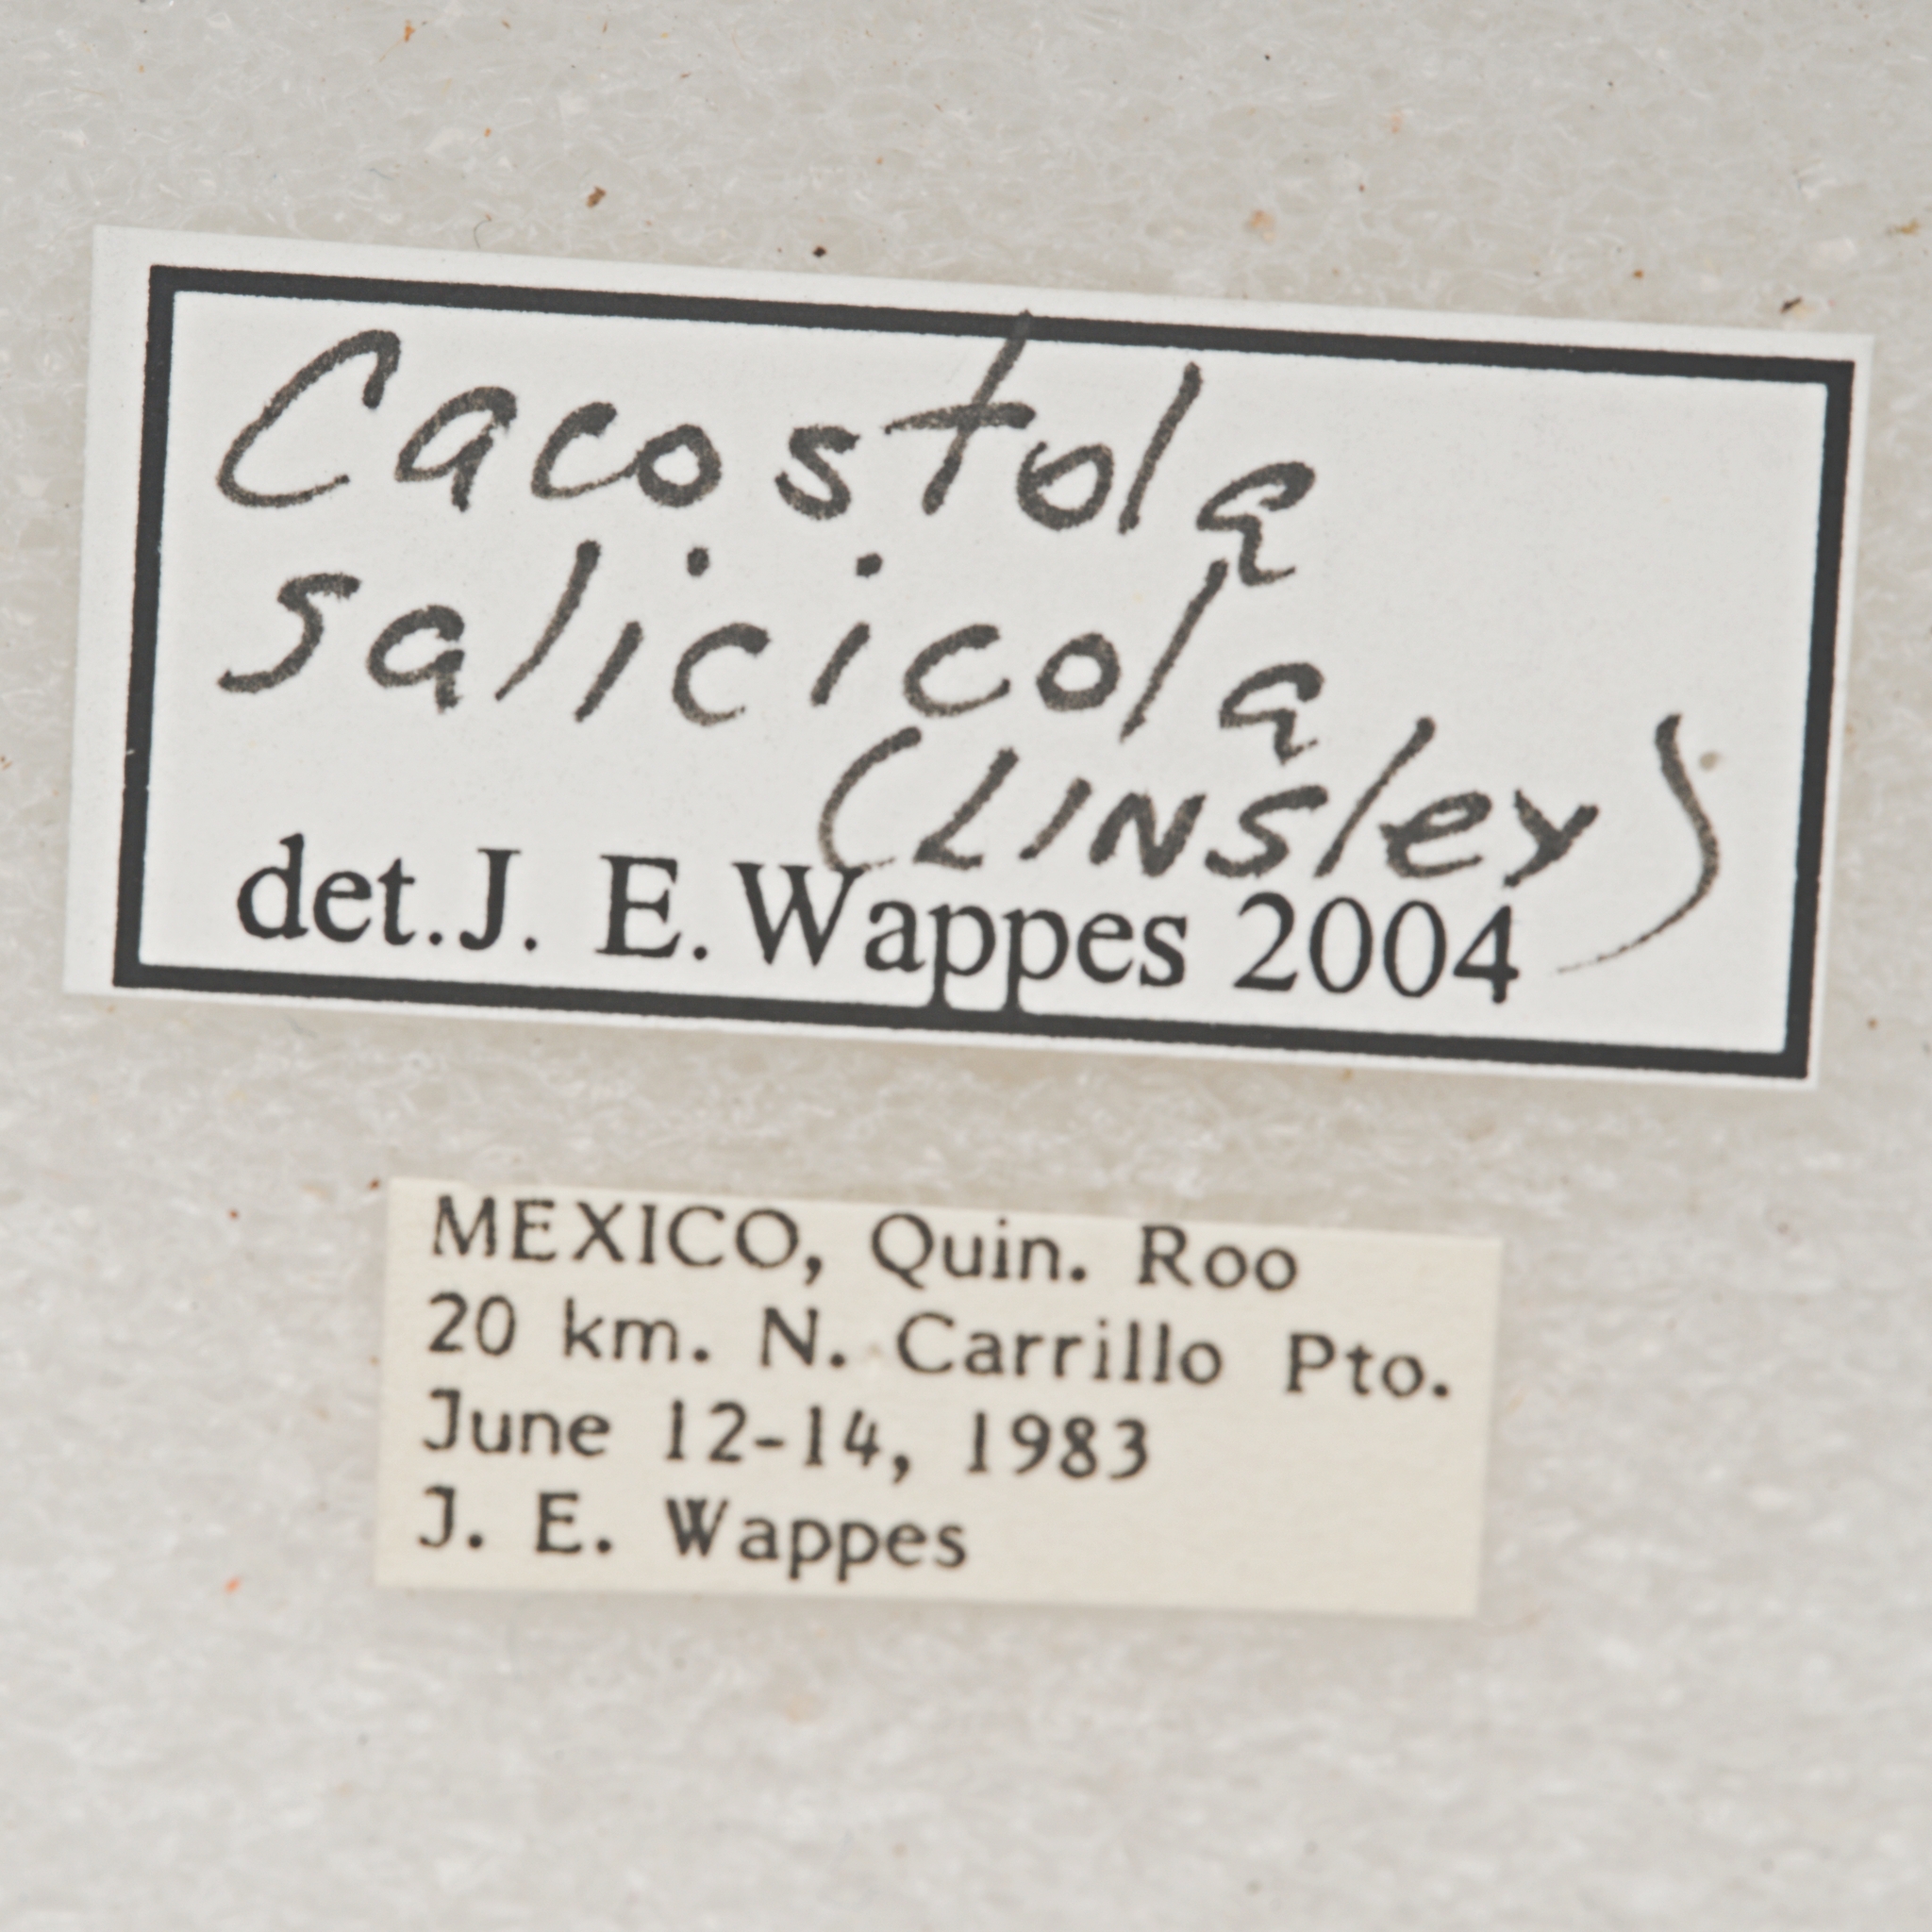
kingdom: Animalia
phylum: Arthropoda
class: Insecta
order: Coleoptera
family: Cerambycidae
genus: Cacostola
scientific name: Cacostola salicicola
